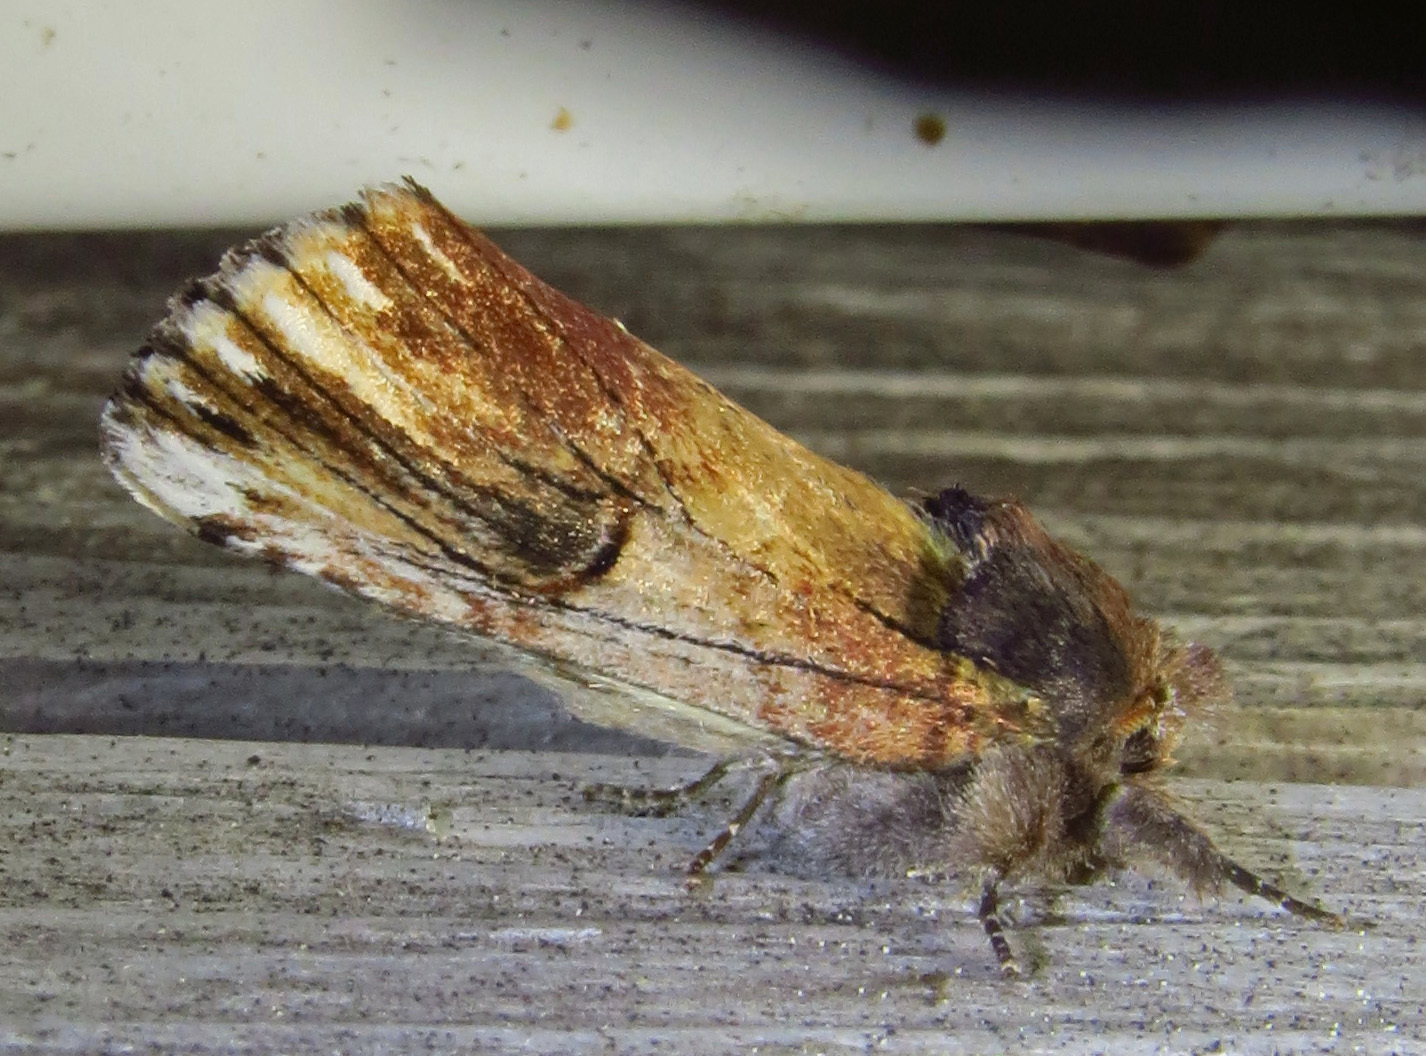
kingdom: Animalia
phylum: Arthropoda
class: Insecta
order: Lepidoptera
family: Notodontidae
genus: Schizura
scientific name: Schizura badia
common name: Chestnut schizura
